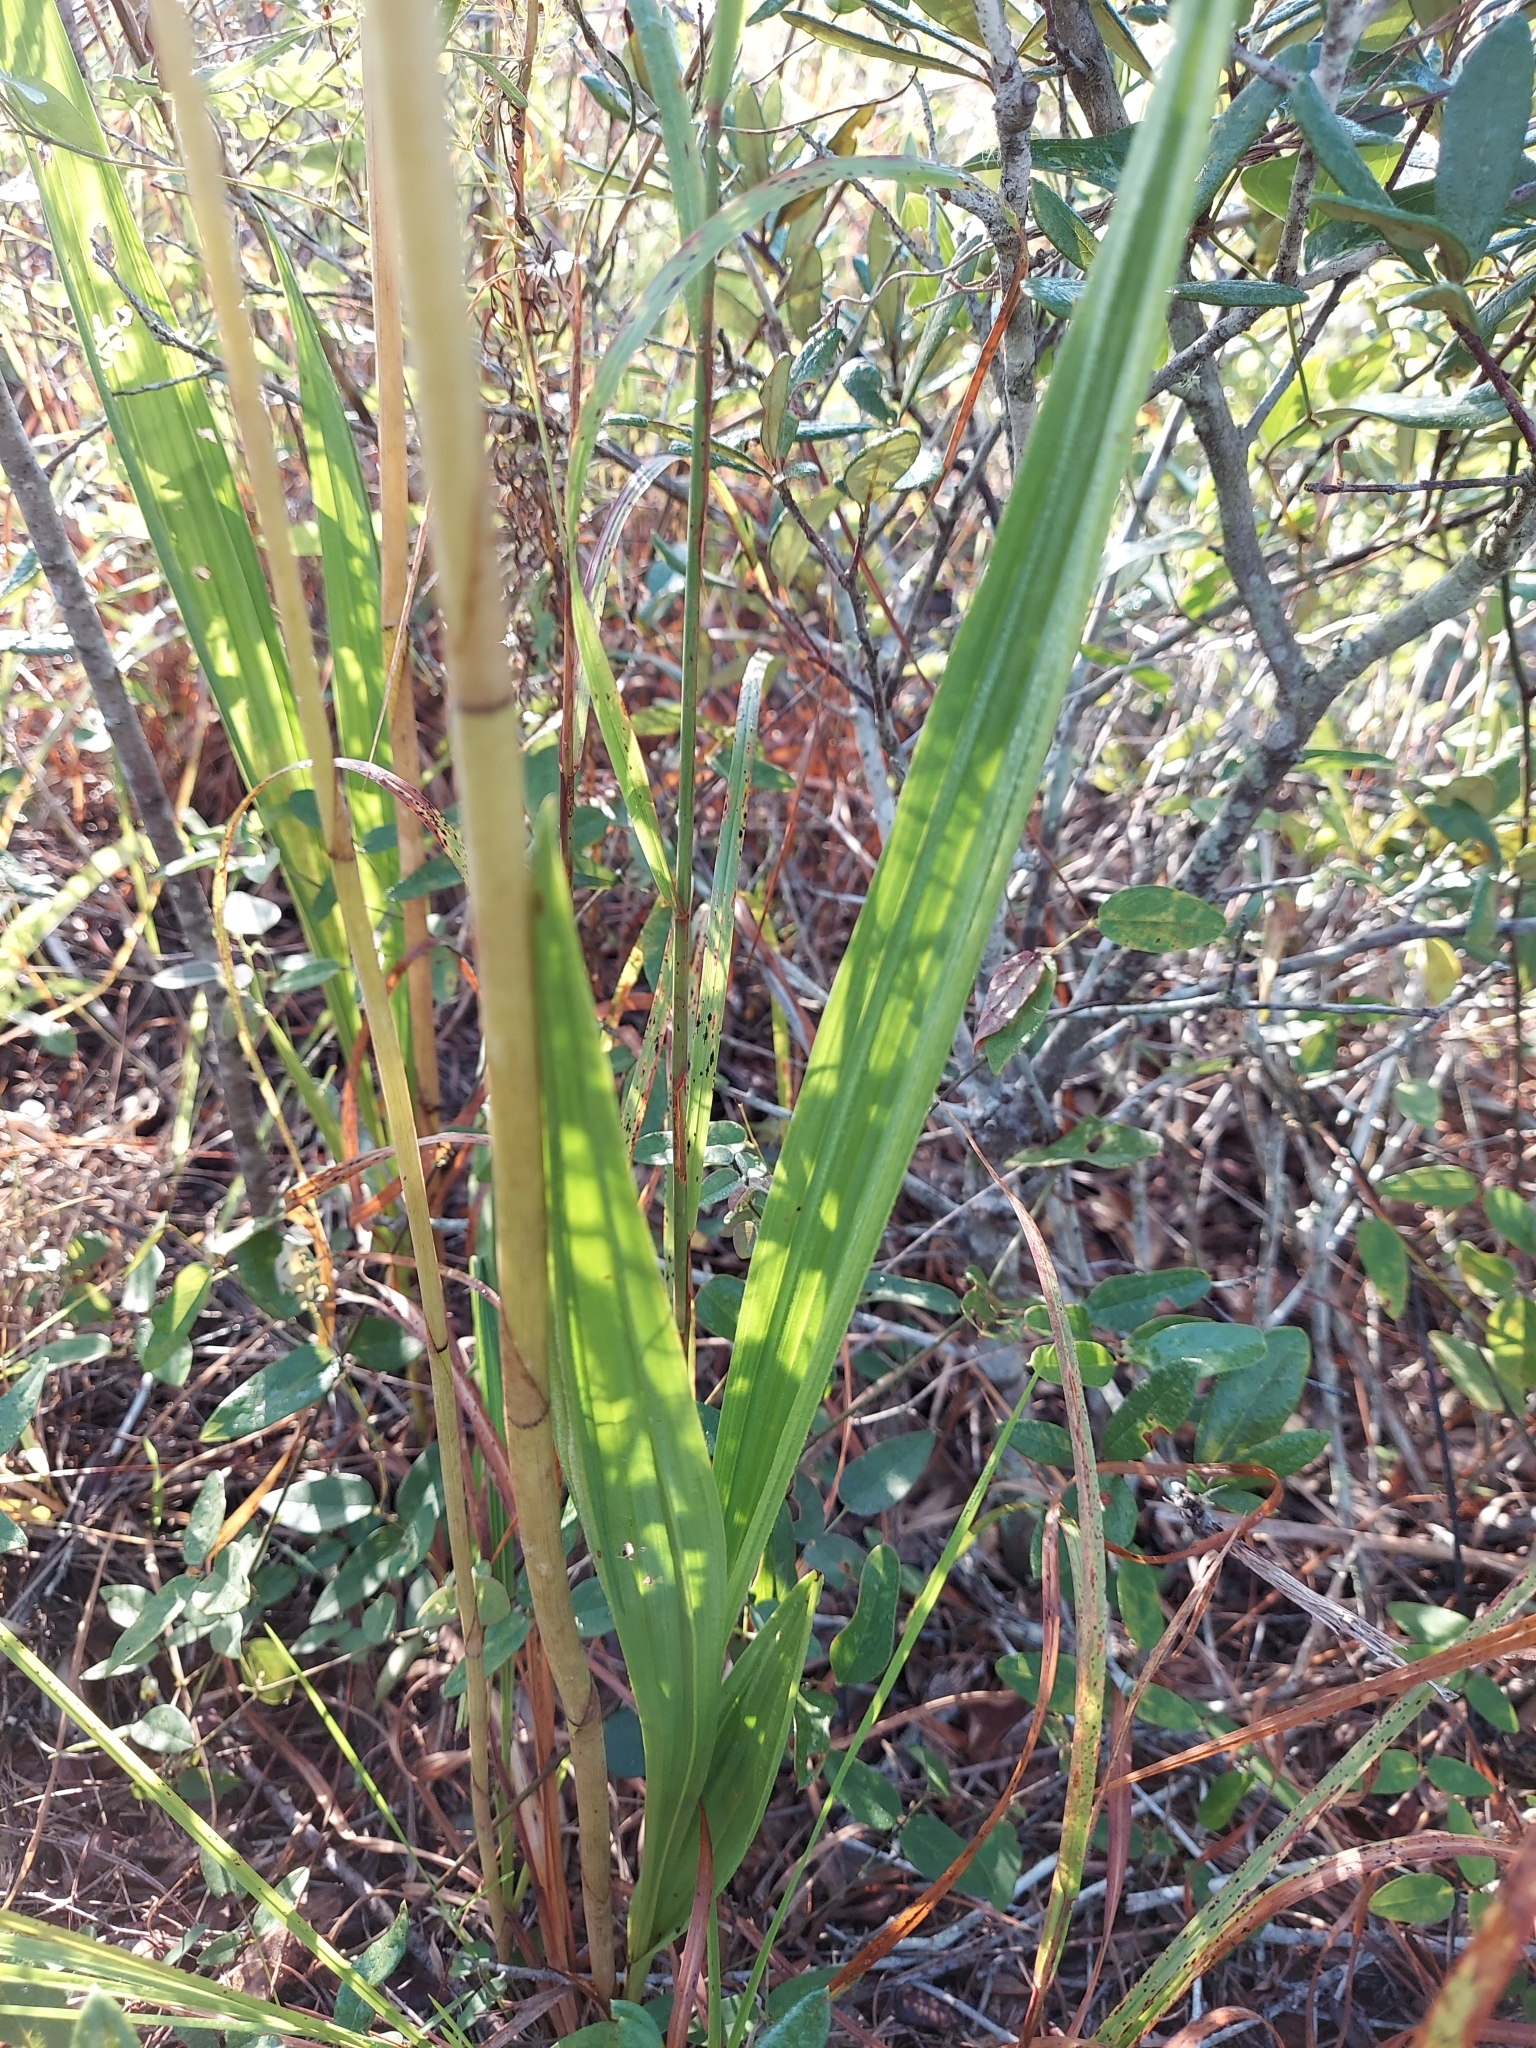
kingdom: Plantae
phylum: Tracheophyta
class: Liliopsida
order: Asparagales
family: Orchidaceae
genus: Eulophia
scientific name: Eulophia ecristata
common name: Giant orchid
